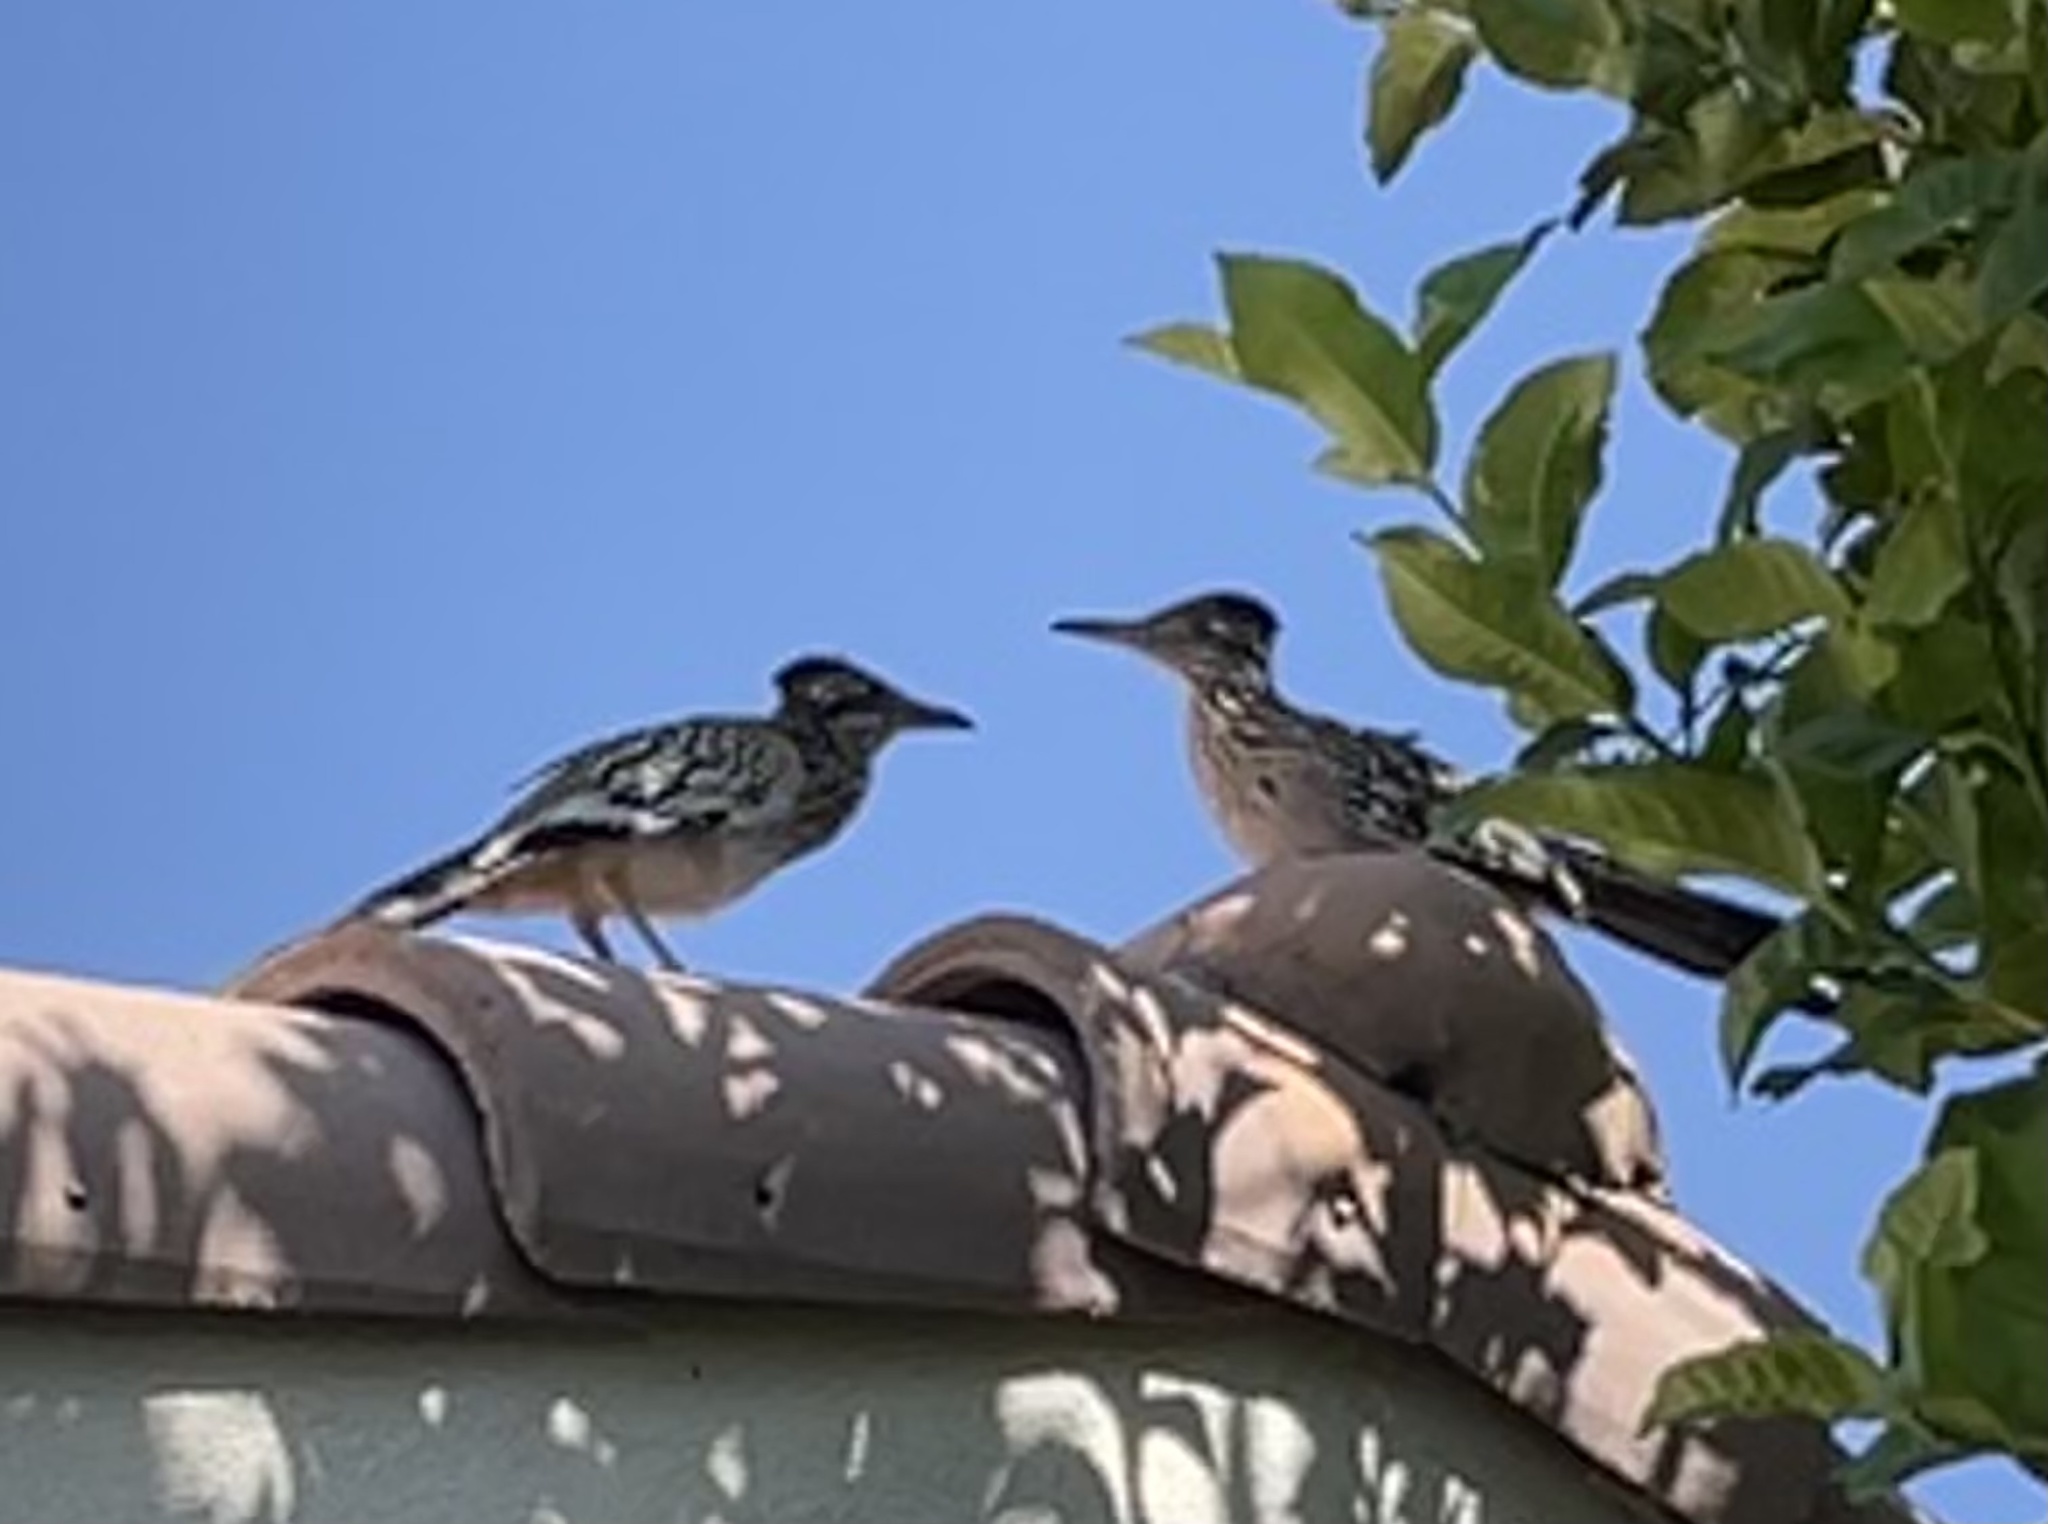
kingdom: Animalia
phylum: Chordata
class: Aves
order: Cuculiformes
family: Cuculidae
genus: Geococcyx
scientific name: Geococcyx californianus
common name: Greater roadrunner
